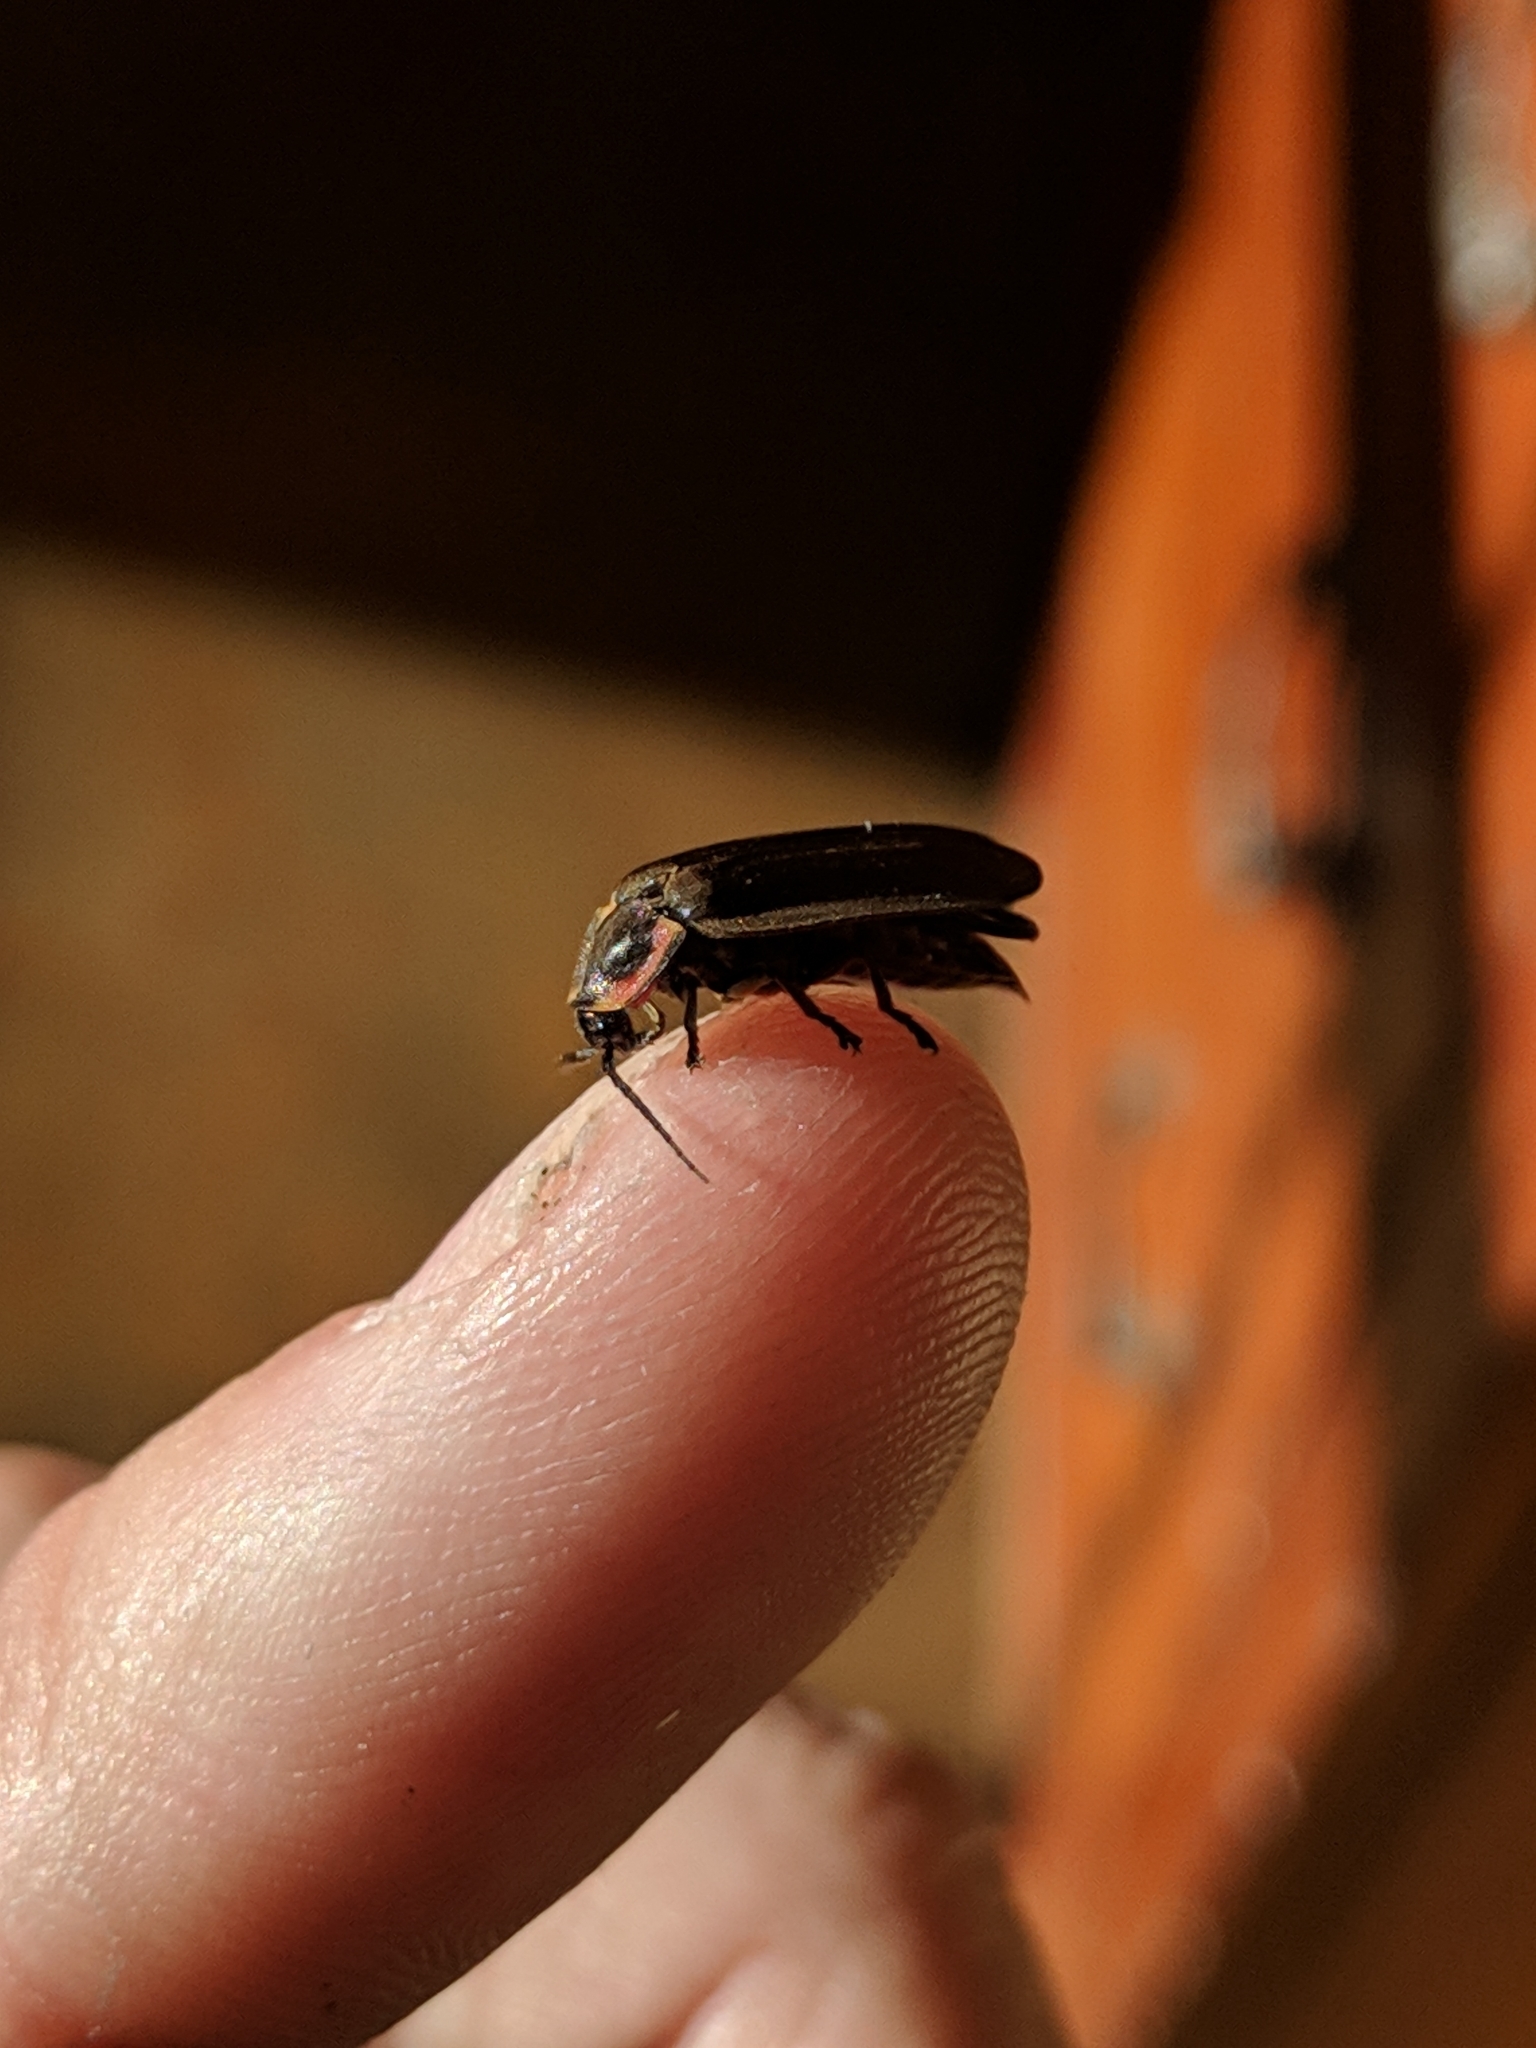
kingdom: Animalia
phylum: Arthropoda
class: Insecta
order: Coleoptera
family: Lampyridae
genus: Photinus
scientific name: Photinus corrusca
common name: Winter firefly
